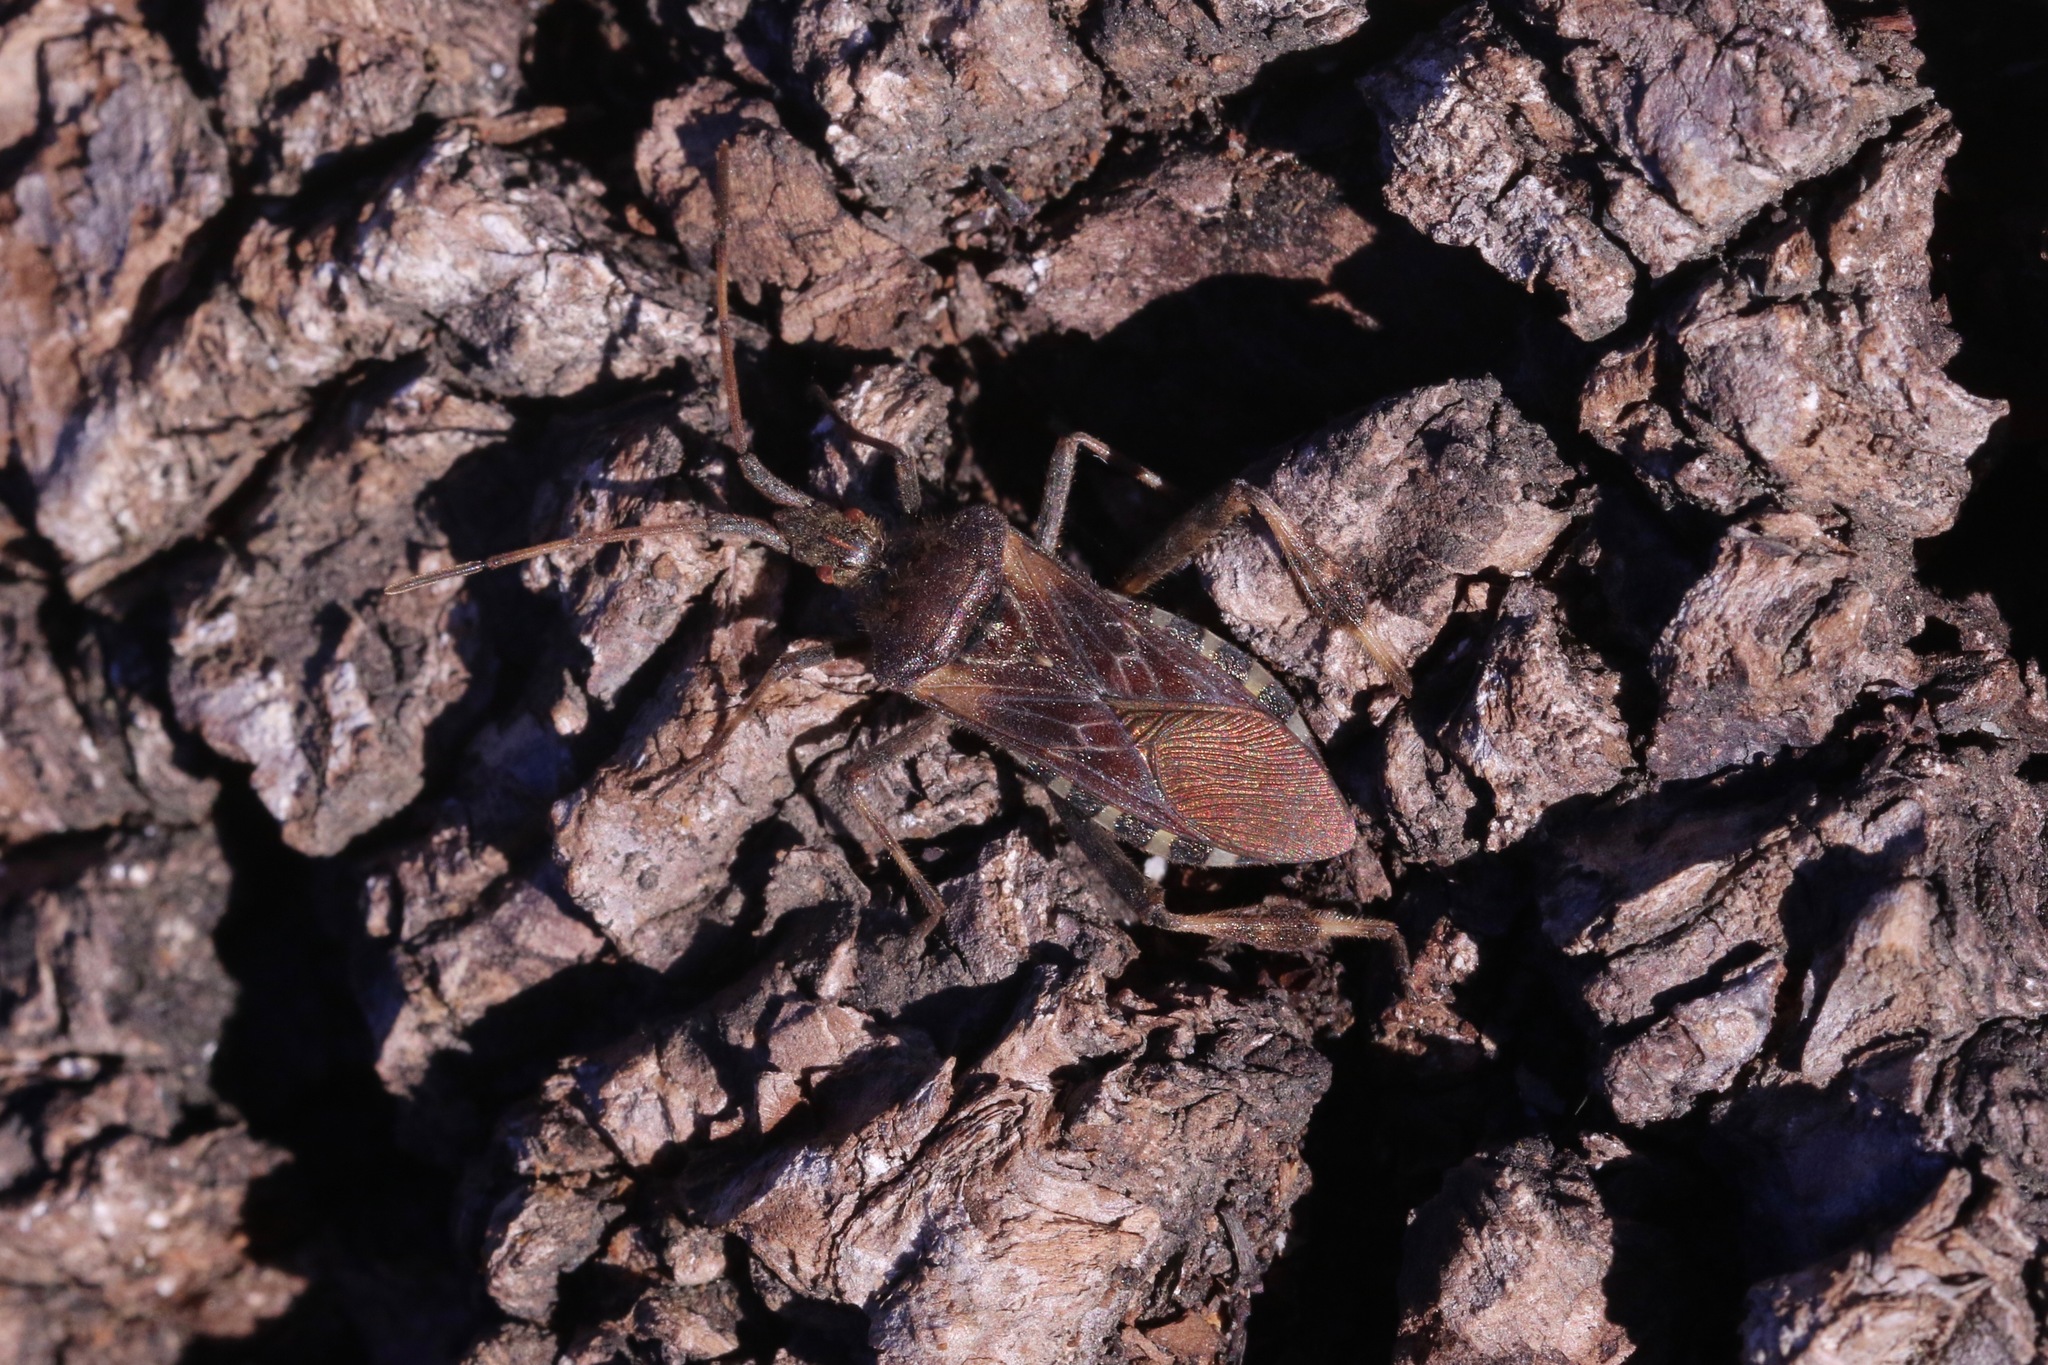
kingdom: Animalia
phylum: Arthropoda
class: Insecta
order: Hemiptera
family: Coreidae
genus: Leptoglossus
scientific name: Leptoglossus occidentalis
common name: Western conifer-seed bug
